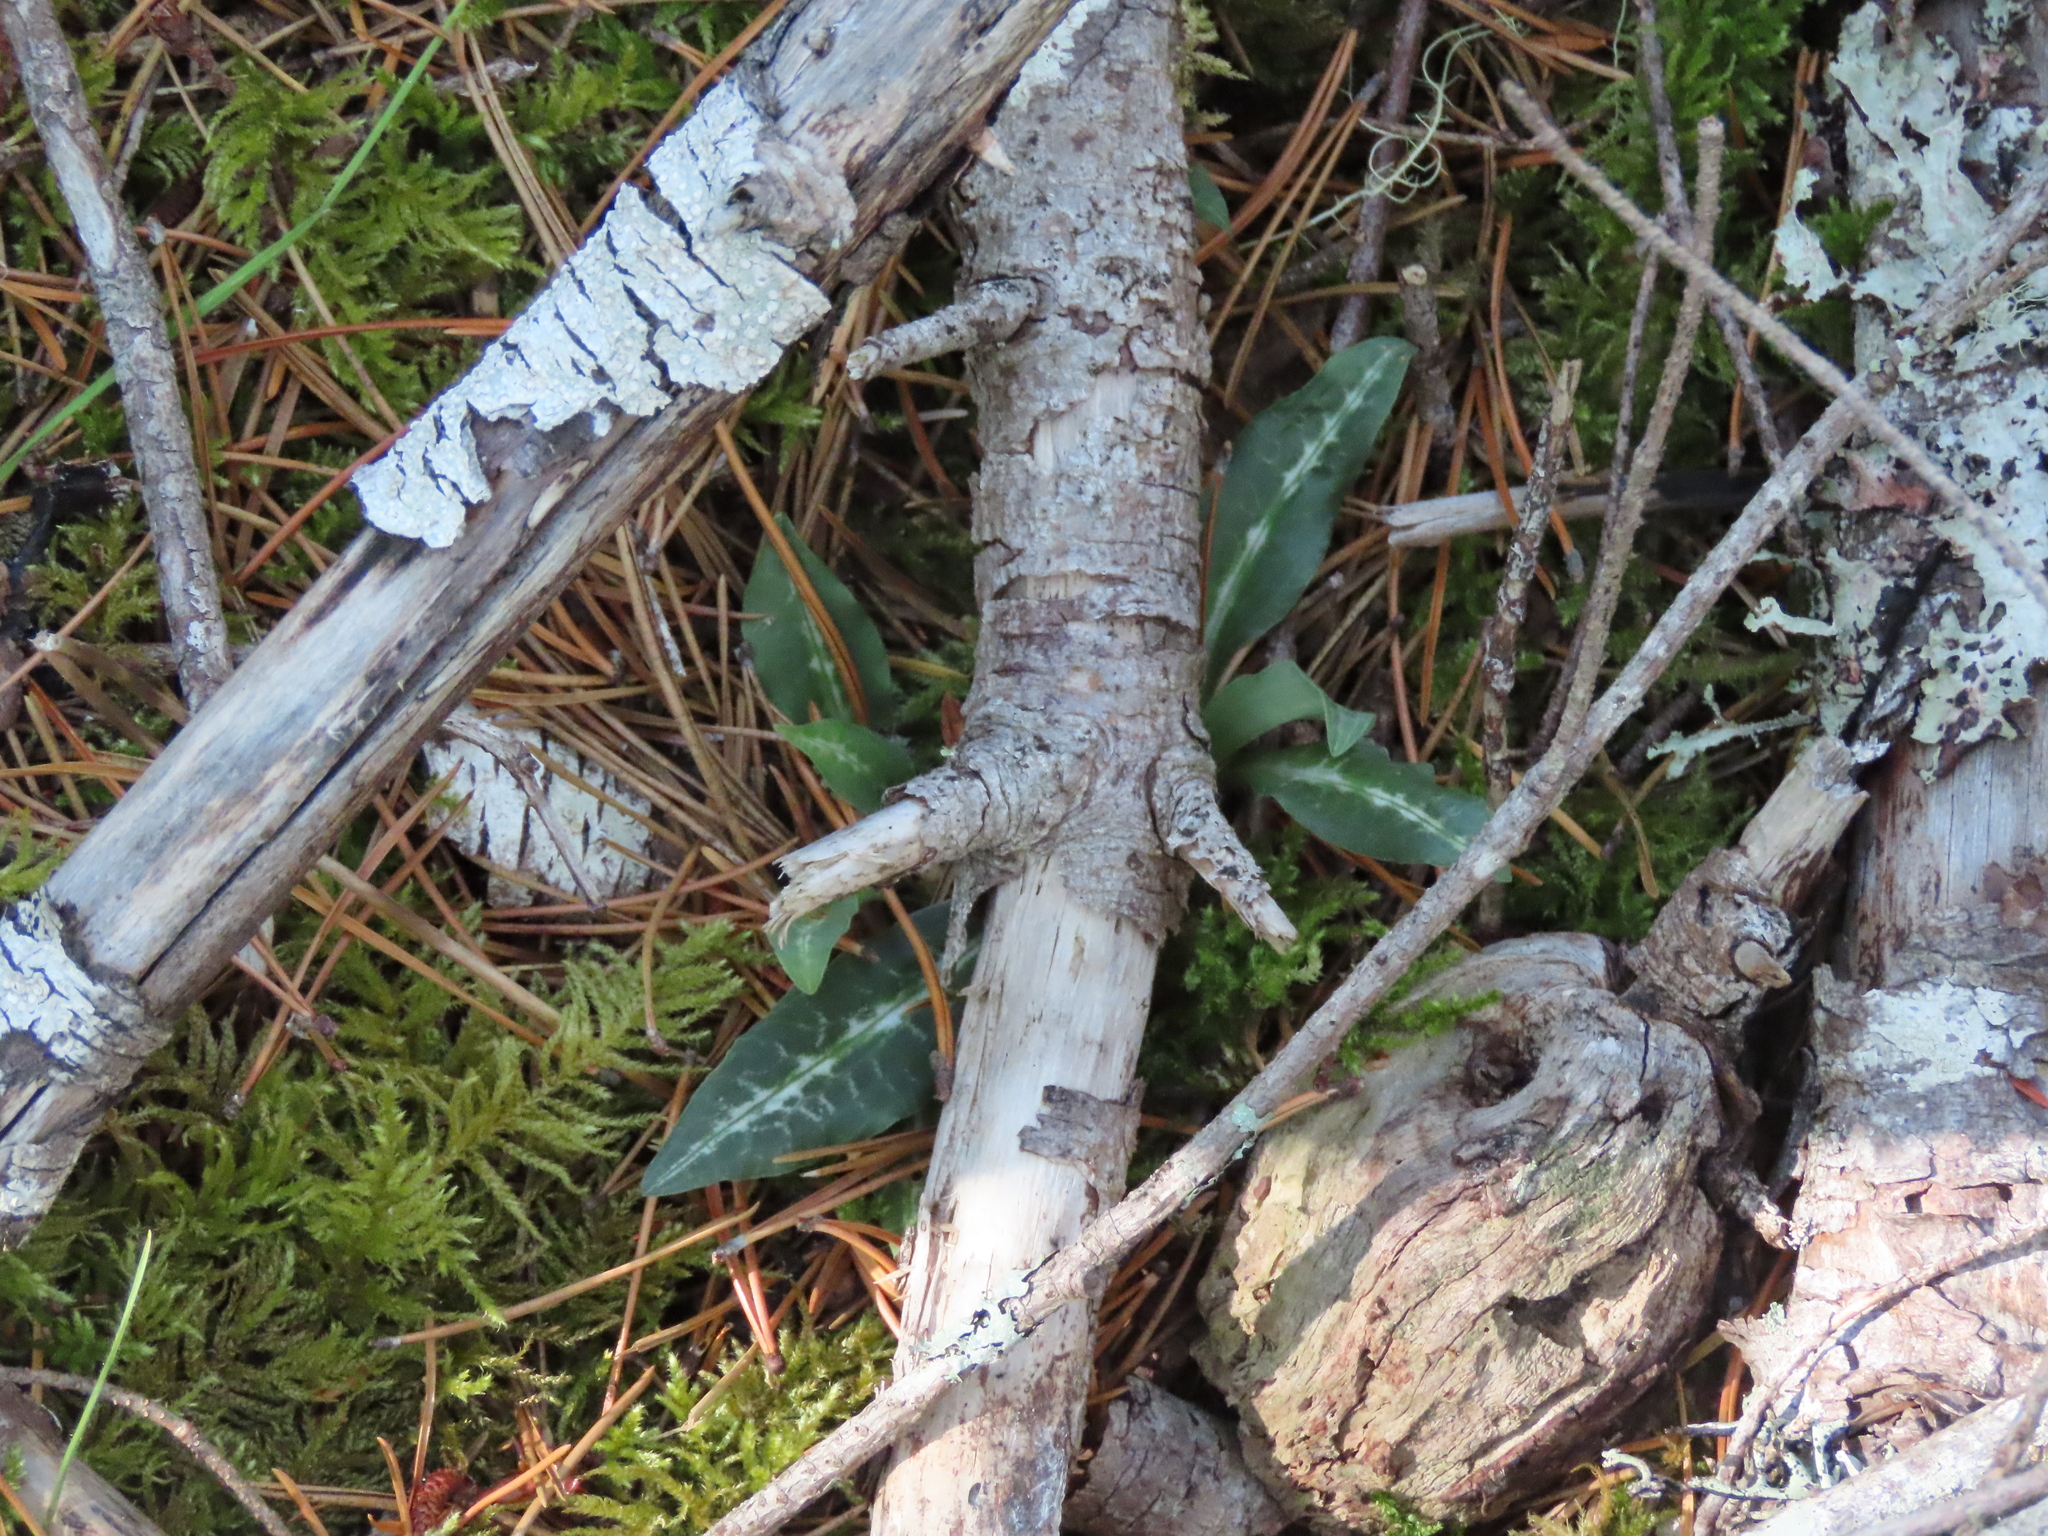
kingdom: Plantae
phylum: Tracheophyta
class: Liliopsida
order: Asparagales
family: Orchidaceae
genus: Goodyera
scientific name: Goodyera oblongifolia
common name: Giant rattlesnake-plantain
